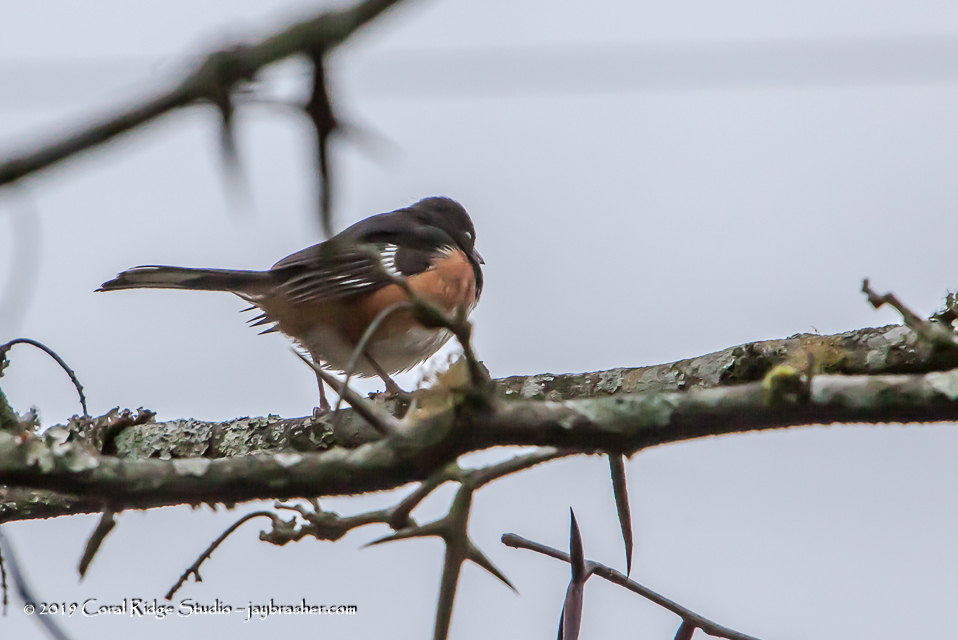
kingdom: Animalia
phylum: Chordata
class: Aves
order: Passeriformes
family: Passerellidae
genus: Pipilo
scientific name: Pipilo erythrophthalmus
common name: Eastern towhee
